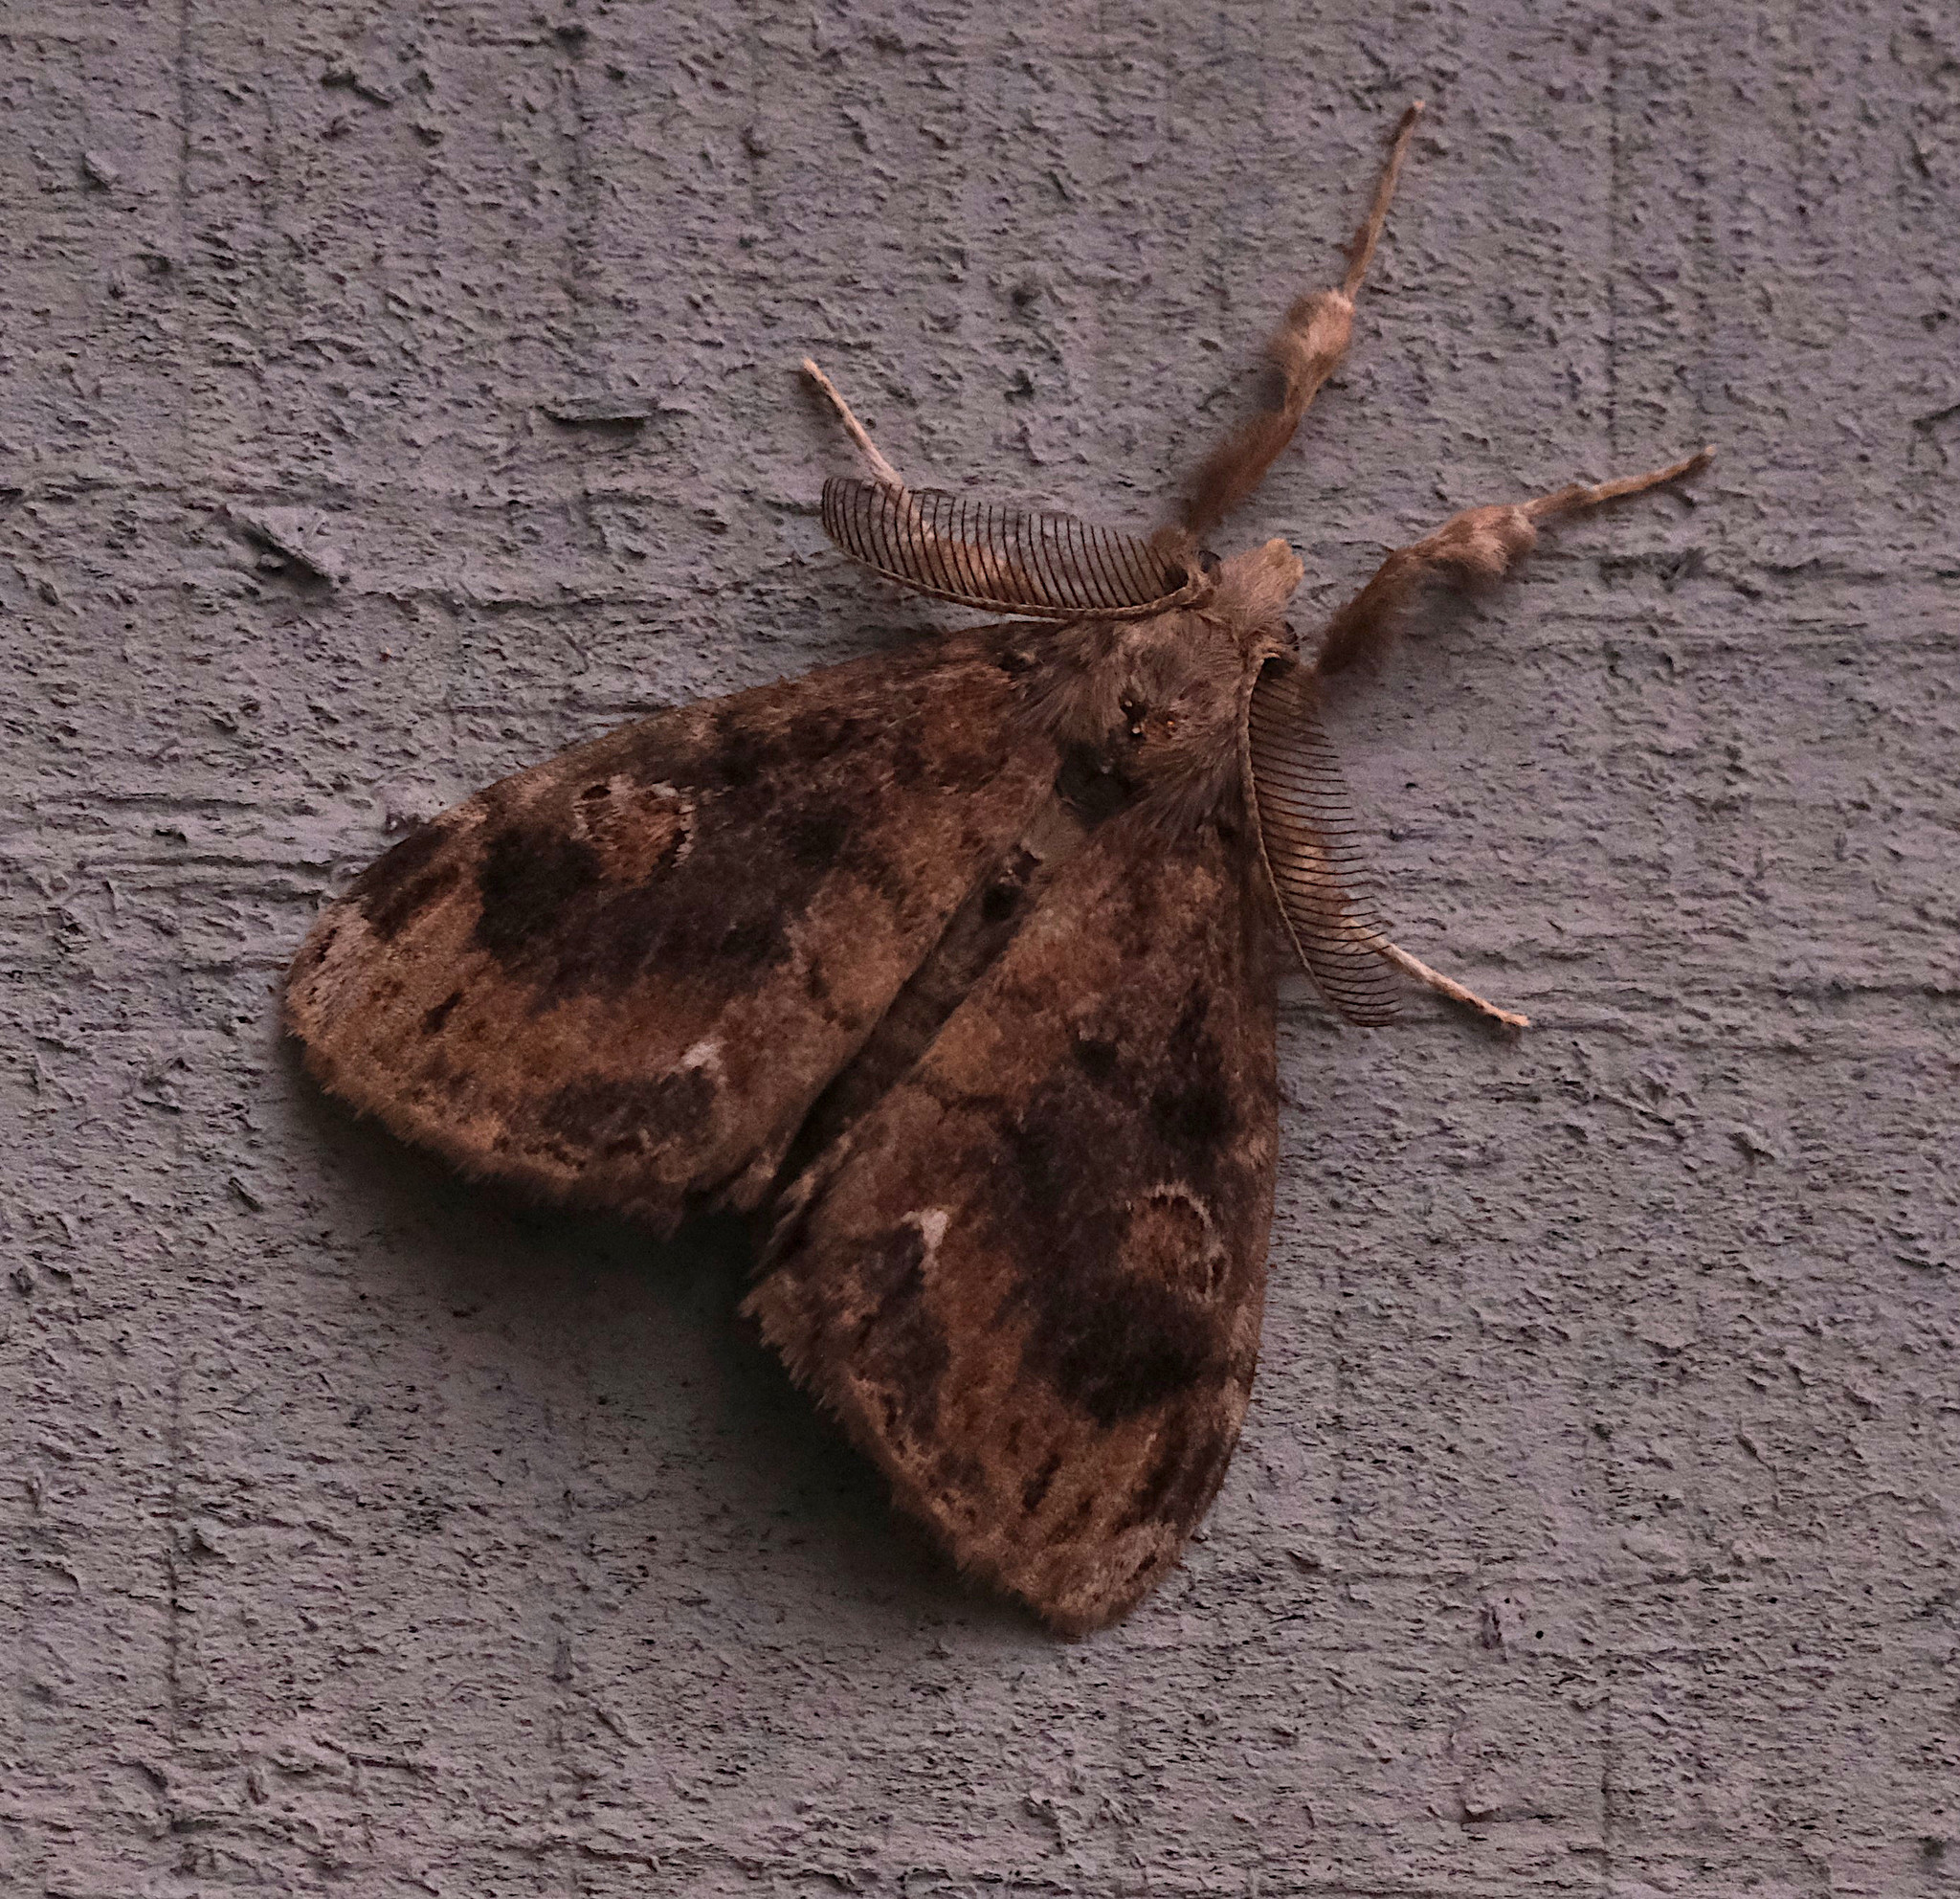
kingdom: Animalia
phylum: Arthropoda
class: Insecta
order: Lepidoptera
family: Erebidae
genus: Orgyia
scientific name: Orgyia definita
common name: Definite tussock moth
